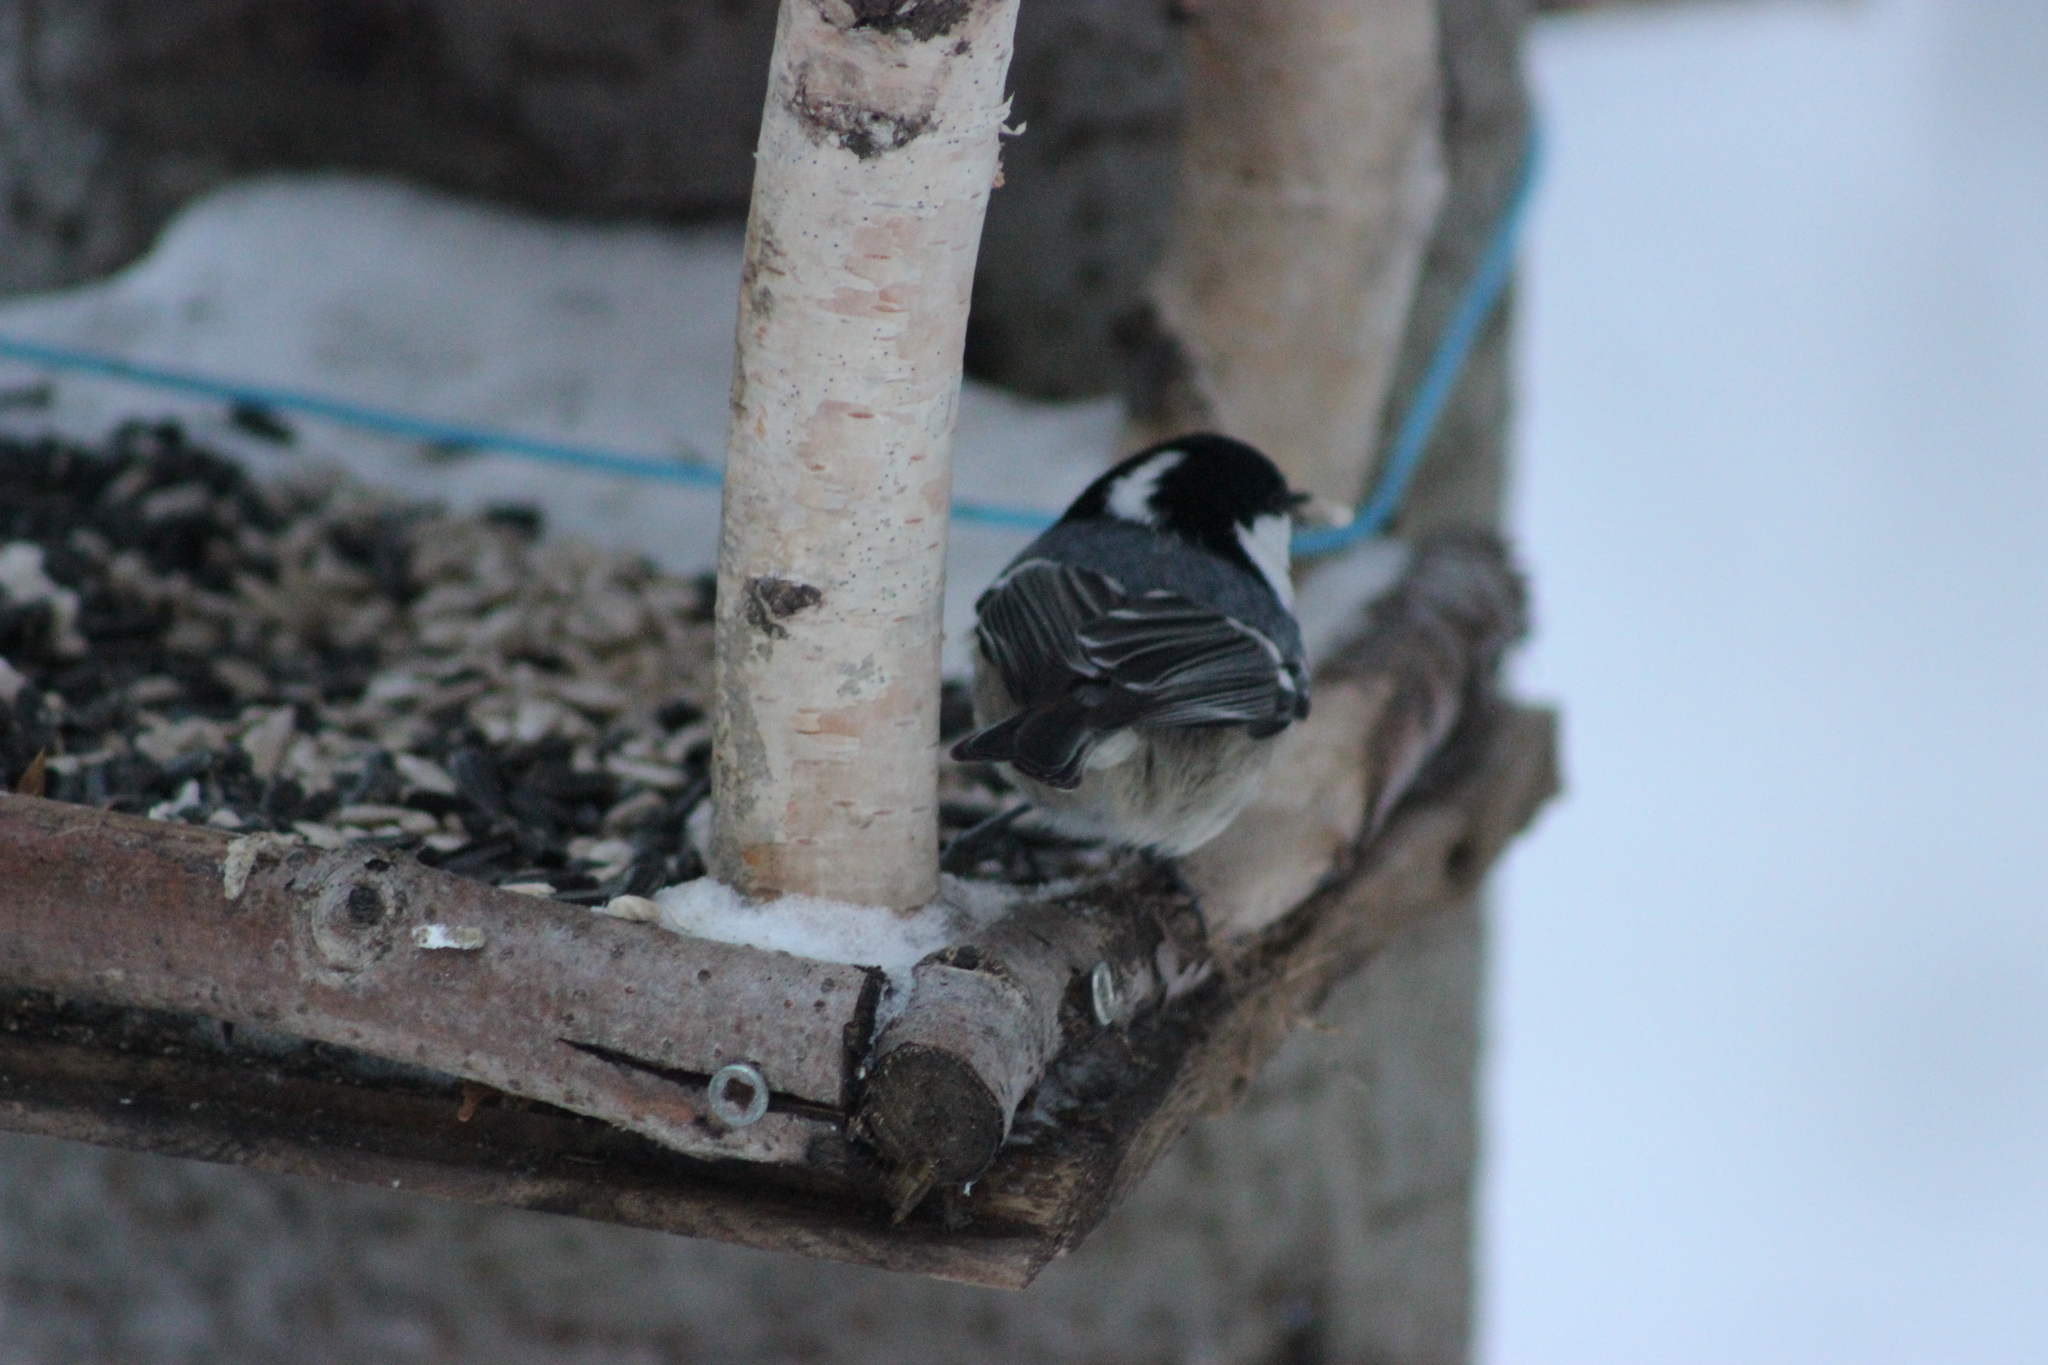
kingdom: Animalia
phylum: Chordata
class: Aves
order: Passeriformes
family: Paridae
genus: Periparus
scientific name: Periparus ater
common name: Coal tit
